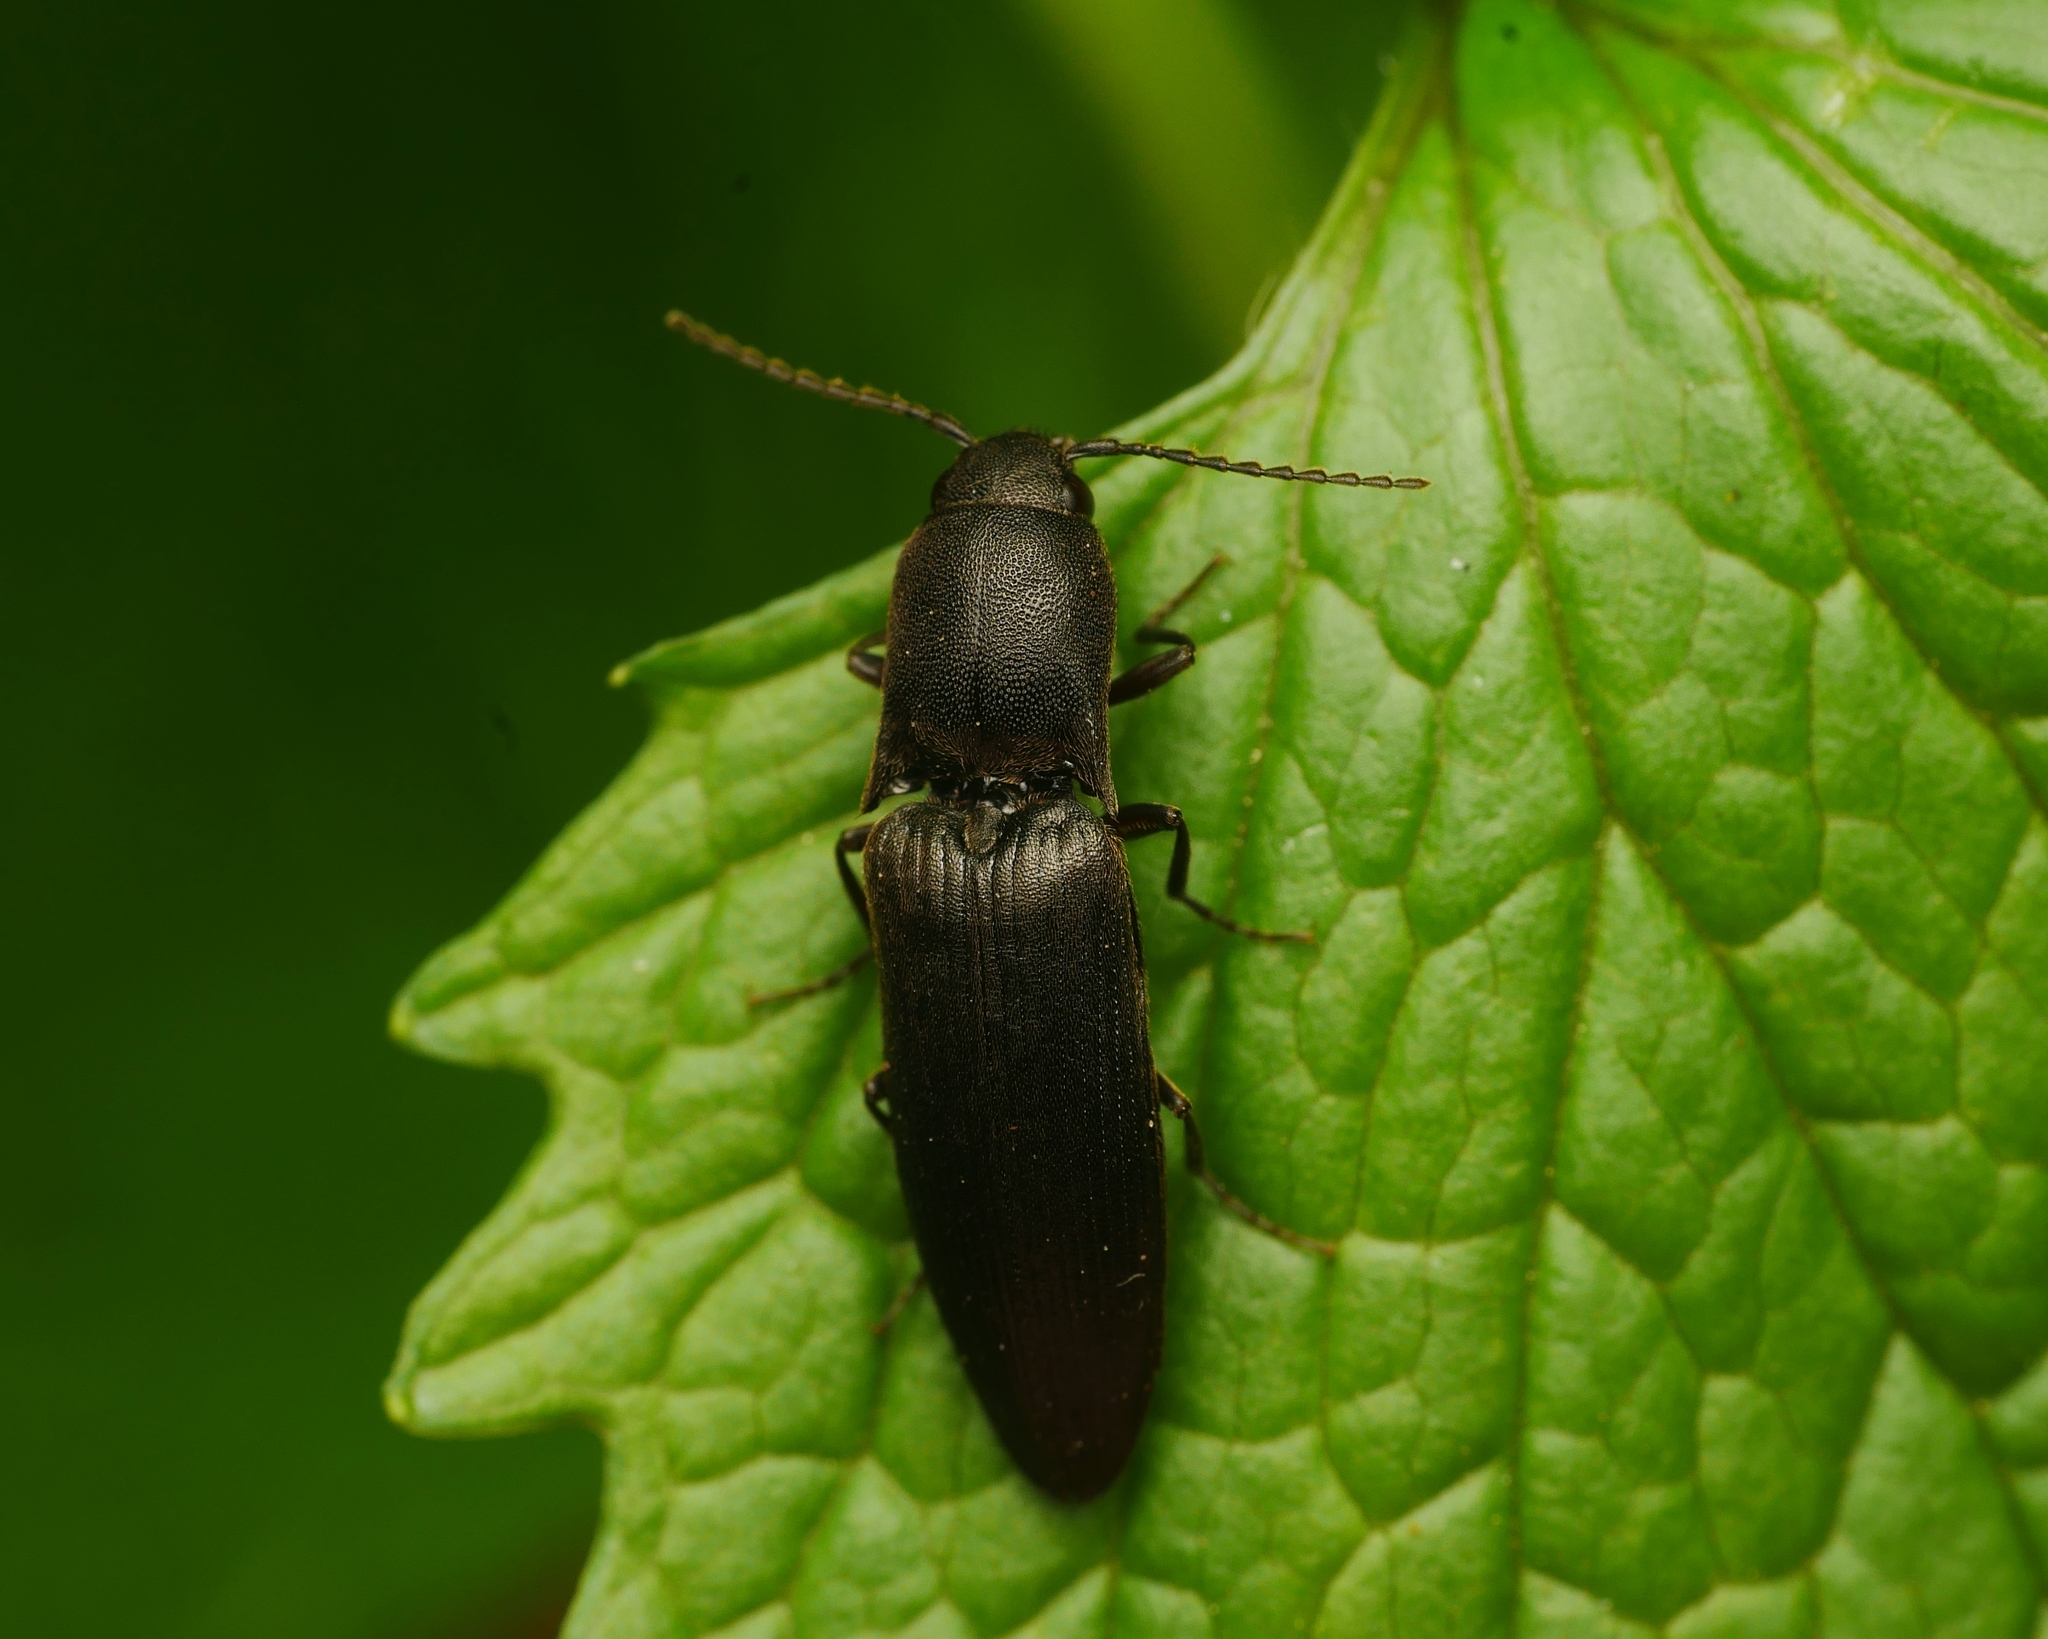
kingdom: Animalia
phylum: Arthropoda
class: Insecta
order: Coleoptera
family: Elateridae
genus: Ectinus
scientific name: Ectinus aterrimus
